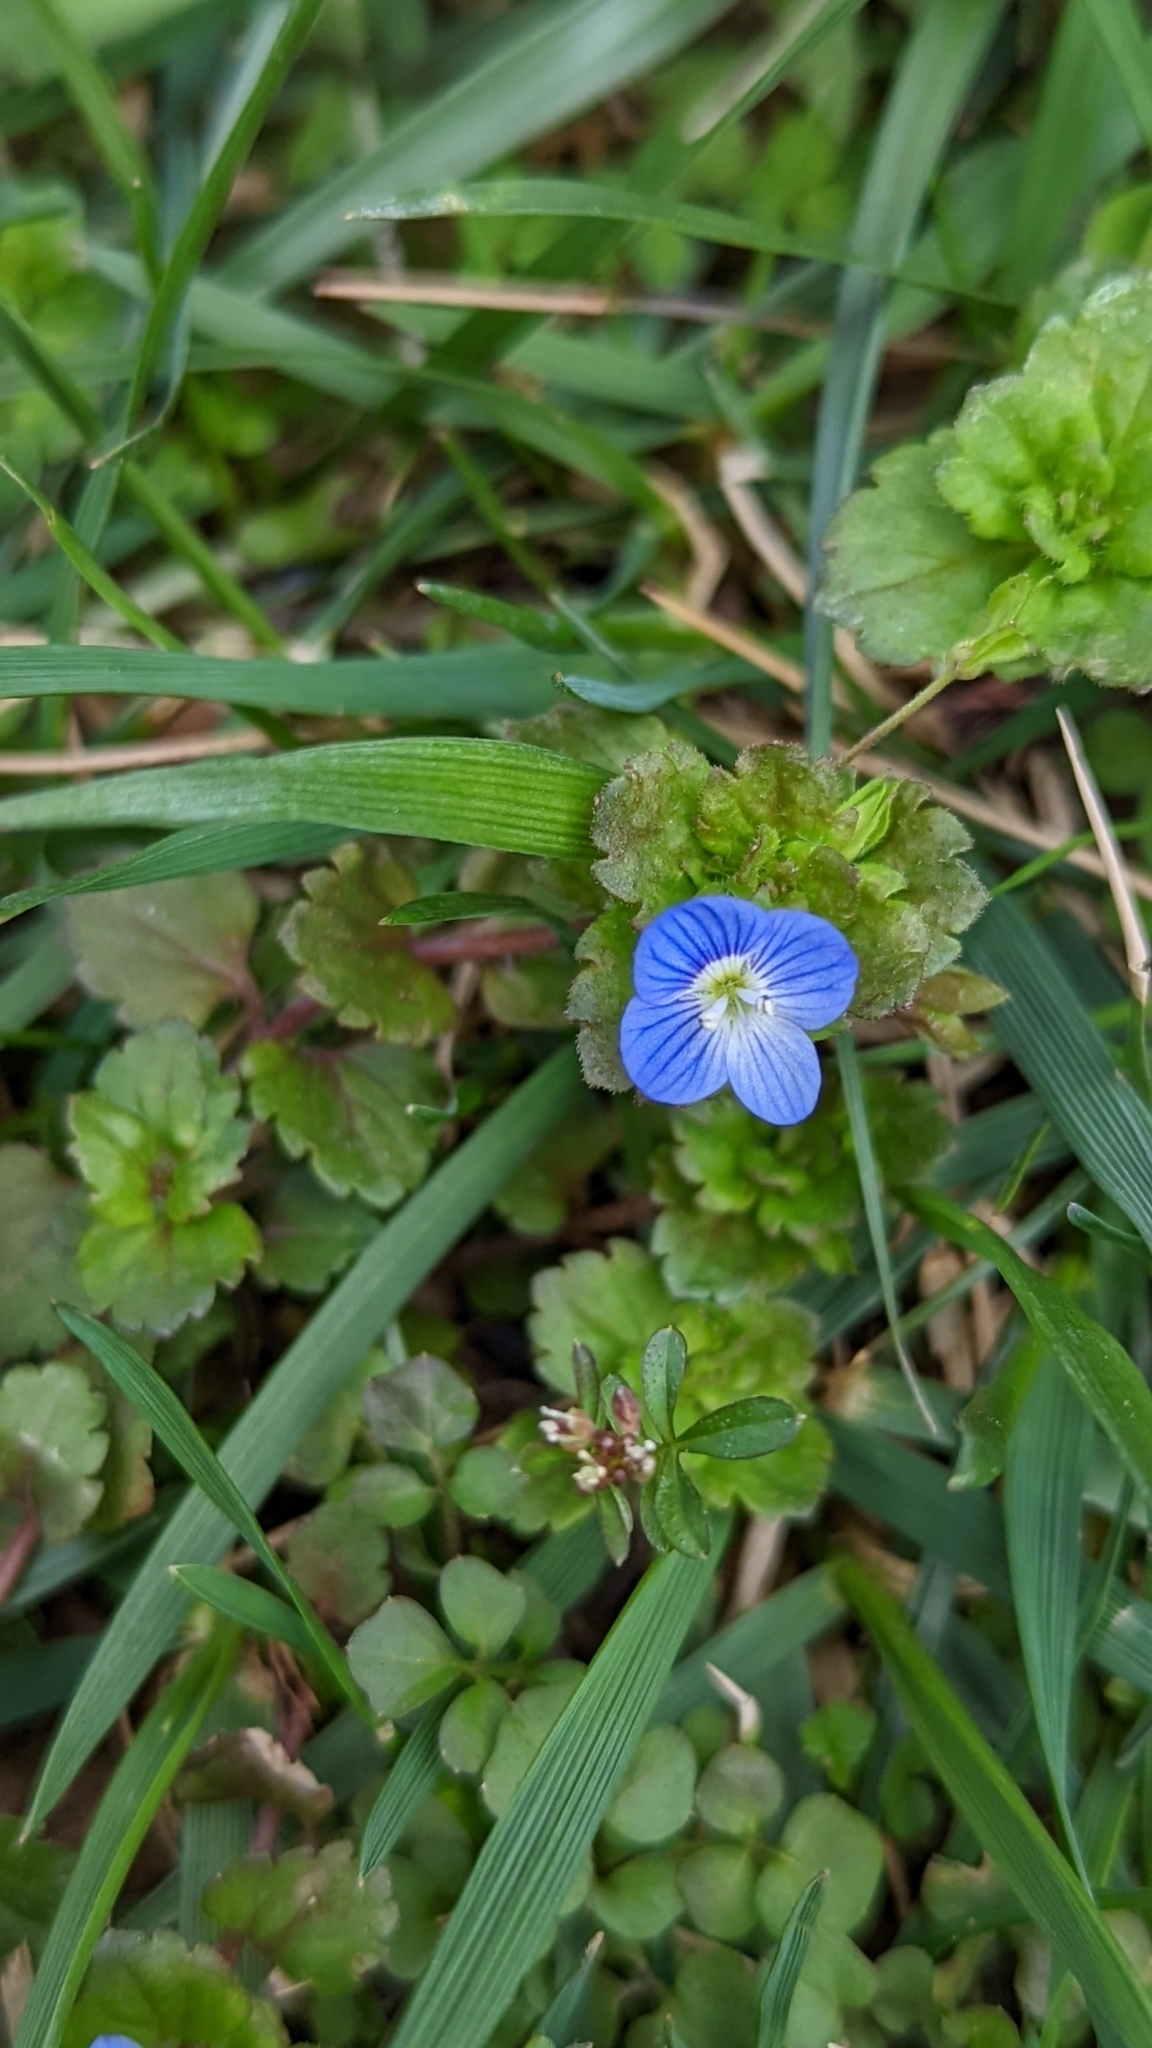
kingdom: Plantae
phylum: Tracheophyta
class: Magnoliopsida
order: Lamiales
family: Plantaginaceae
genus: Veronica
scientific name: Veronica persica
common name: Common field-speedwell
